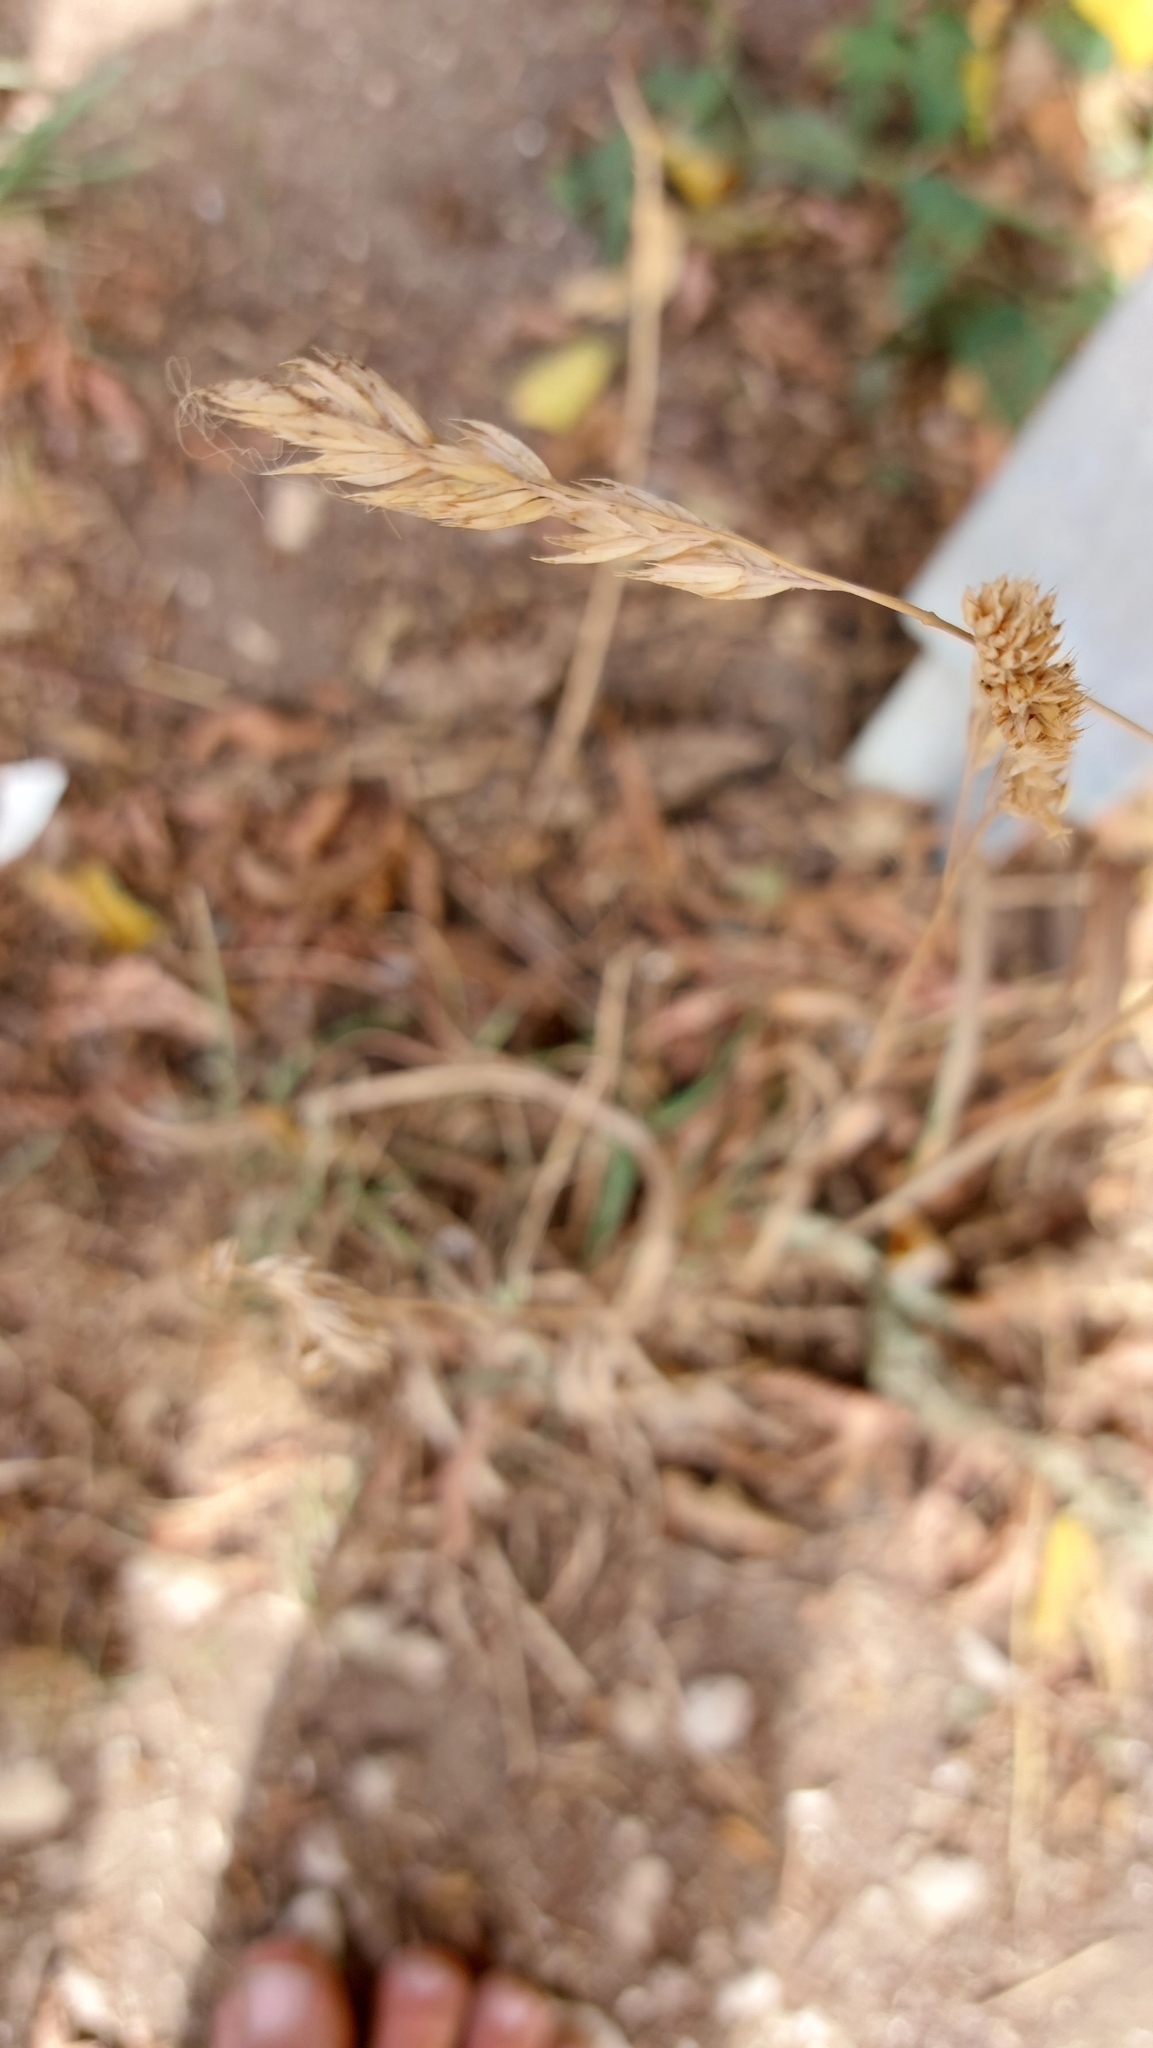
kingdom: Plantae
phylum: Tracheophyta
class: Liliopsida
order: Poales
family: Poaceae
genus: Dactylis
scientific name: Dactylis glomerata
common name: Orchardgrass
